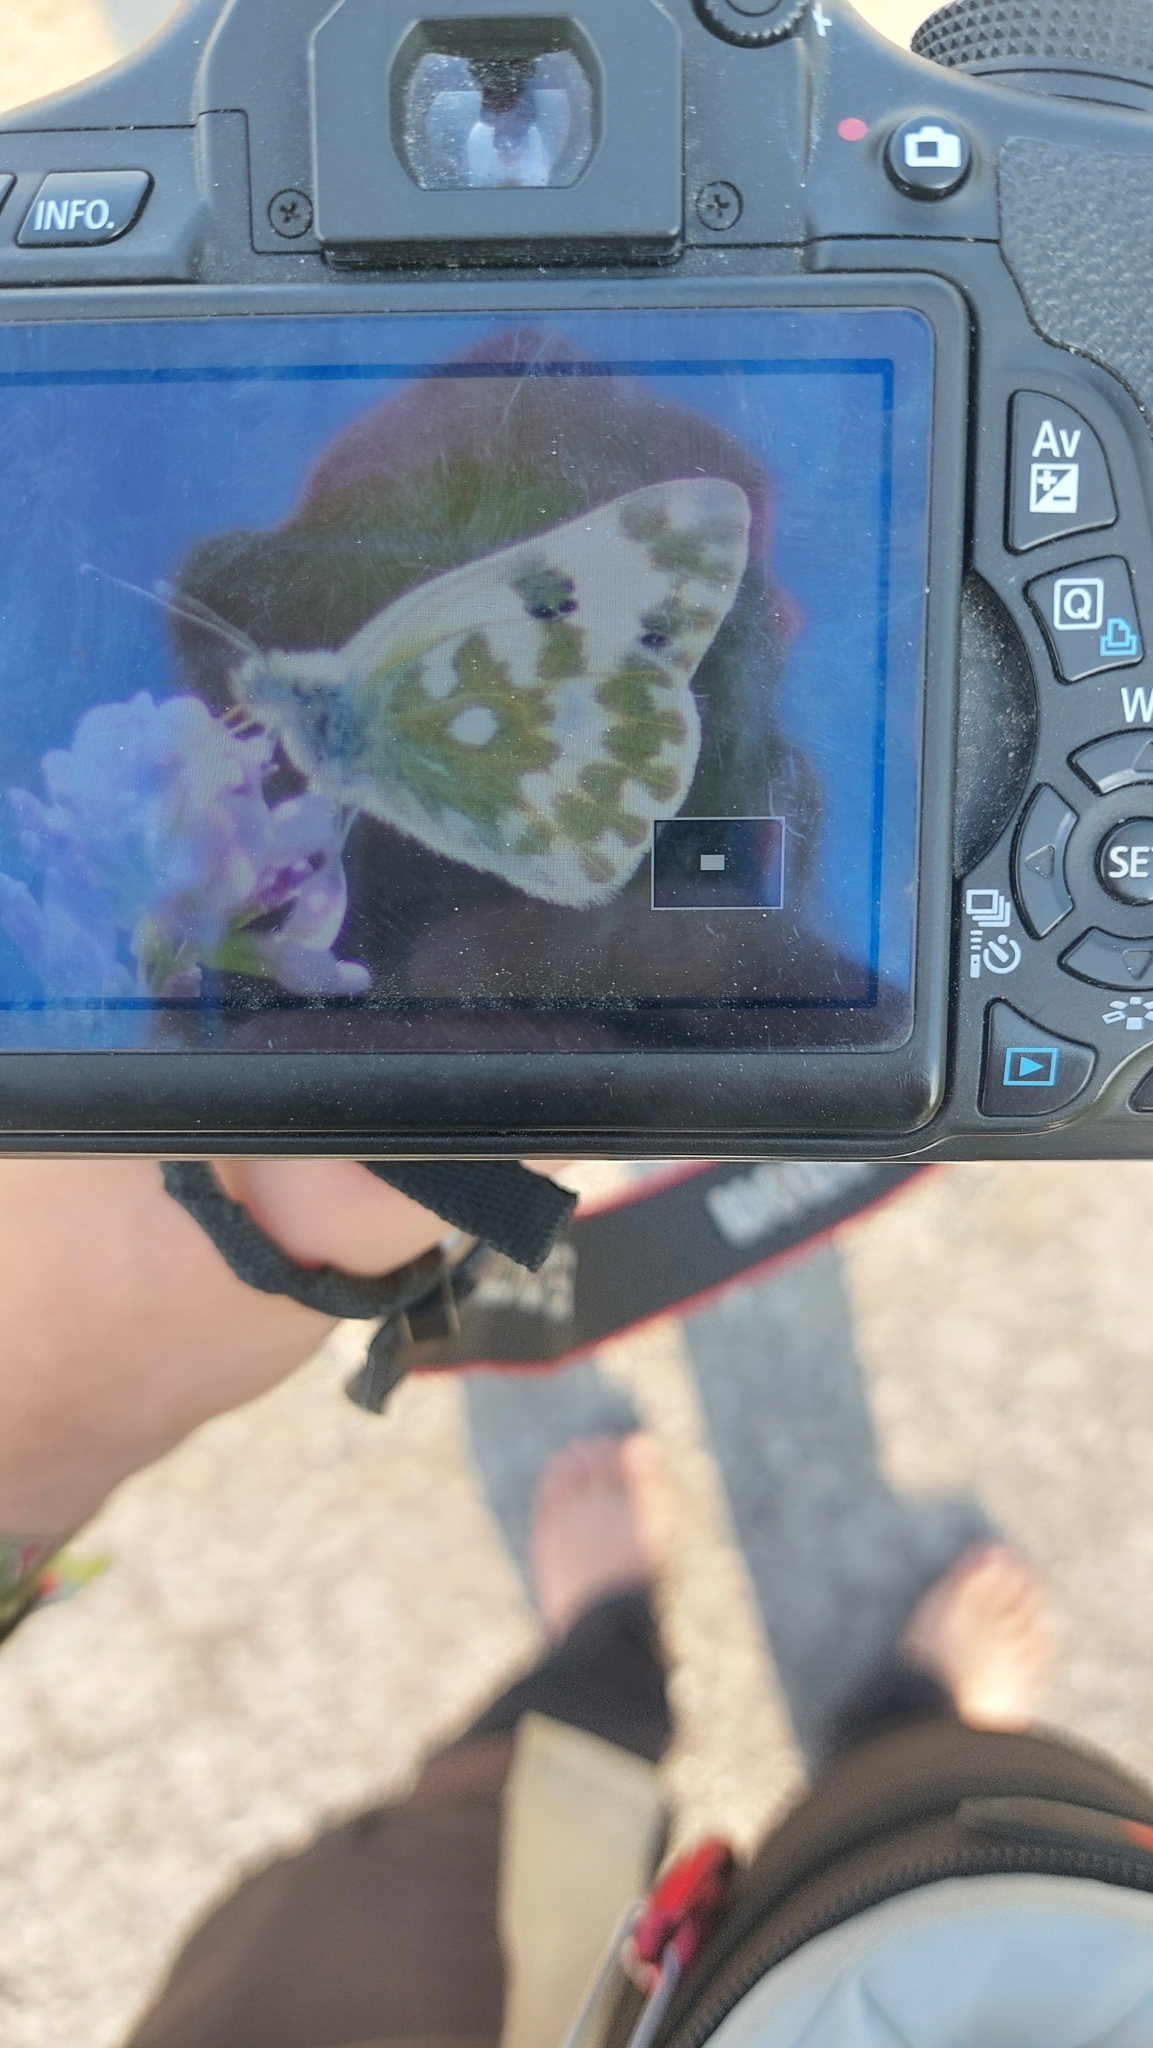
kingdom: Animalia
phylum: Arthropoda
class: Insecta
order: Lepidoptera
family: Pieridae
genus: Pontia
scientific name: Pontia edusa
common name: Eastern bath white
